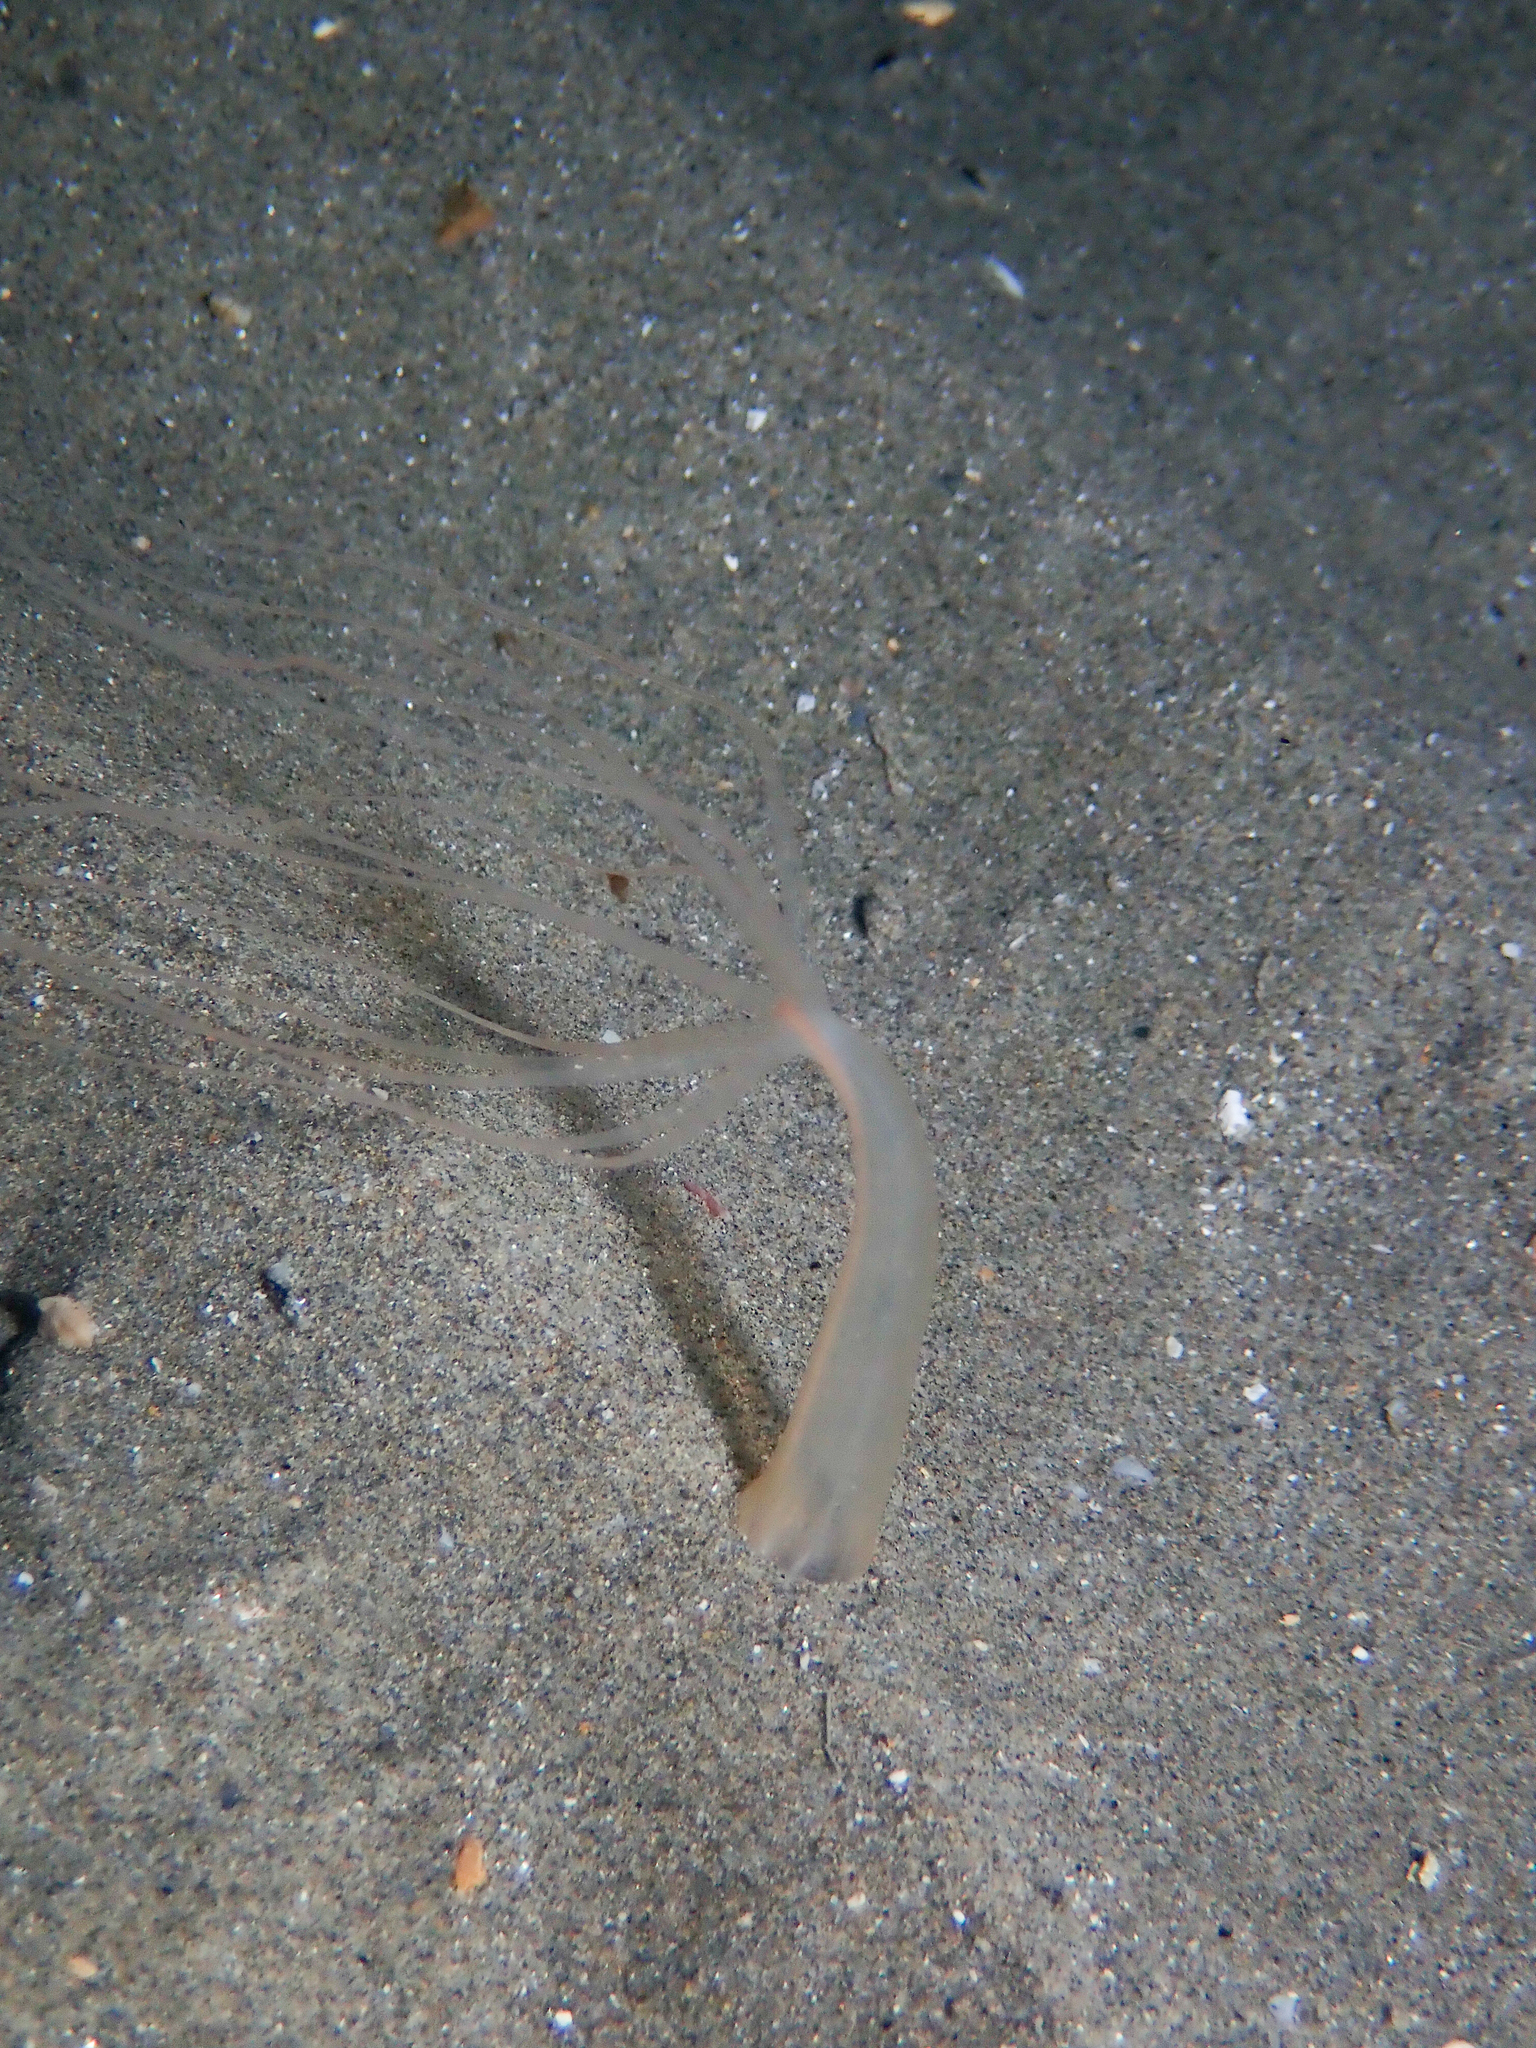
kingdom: Animalia
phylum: Cnidaria
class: Anthozoa
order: Actiniaria
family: Halcampoididae
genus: Halcampoides
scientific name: Halcampoides purpureus
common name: Purple anemone
